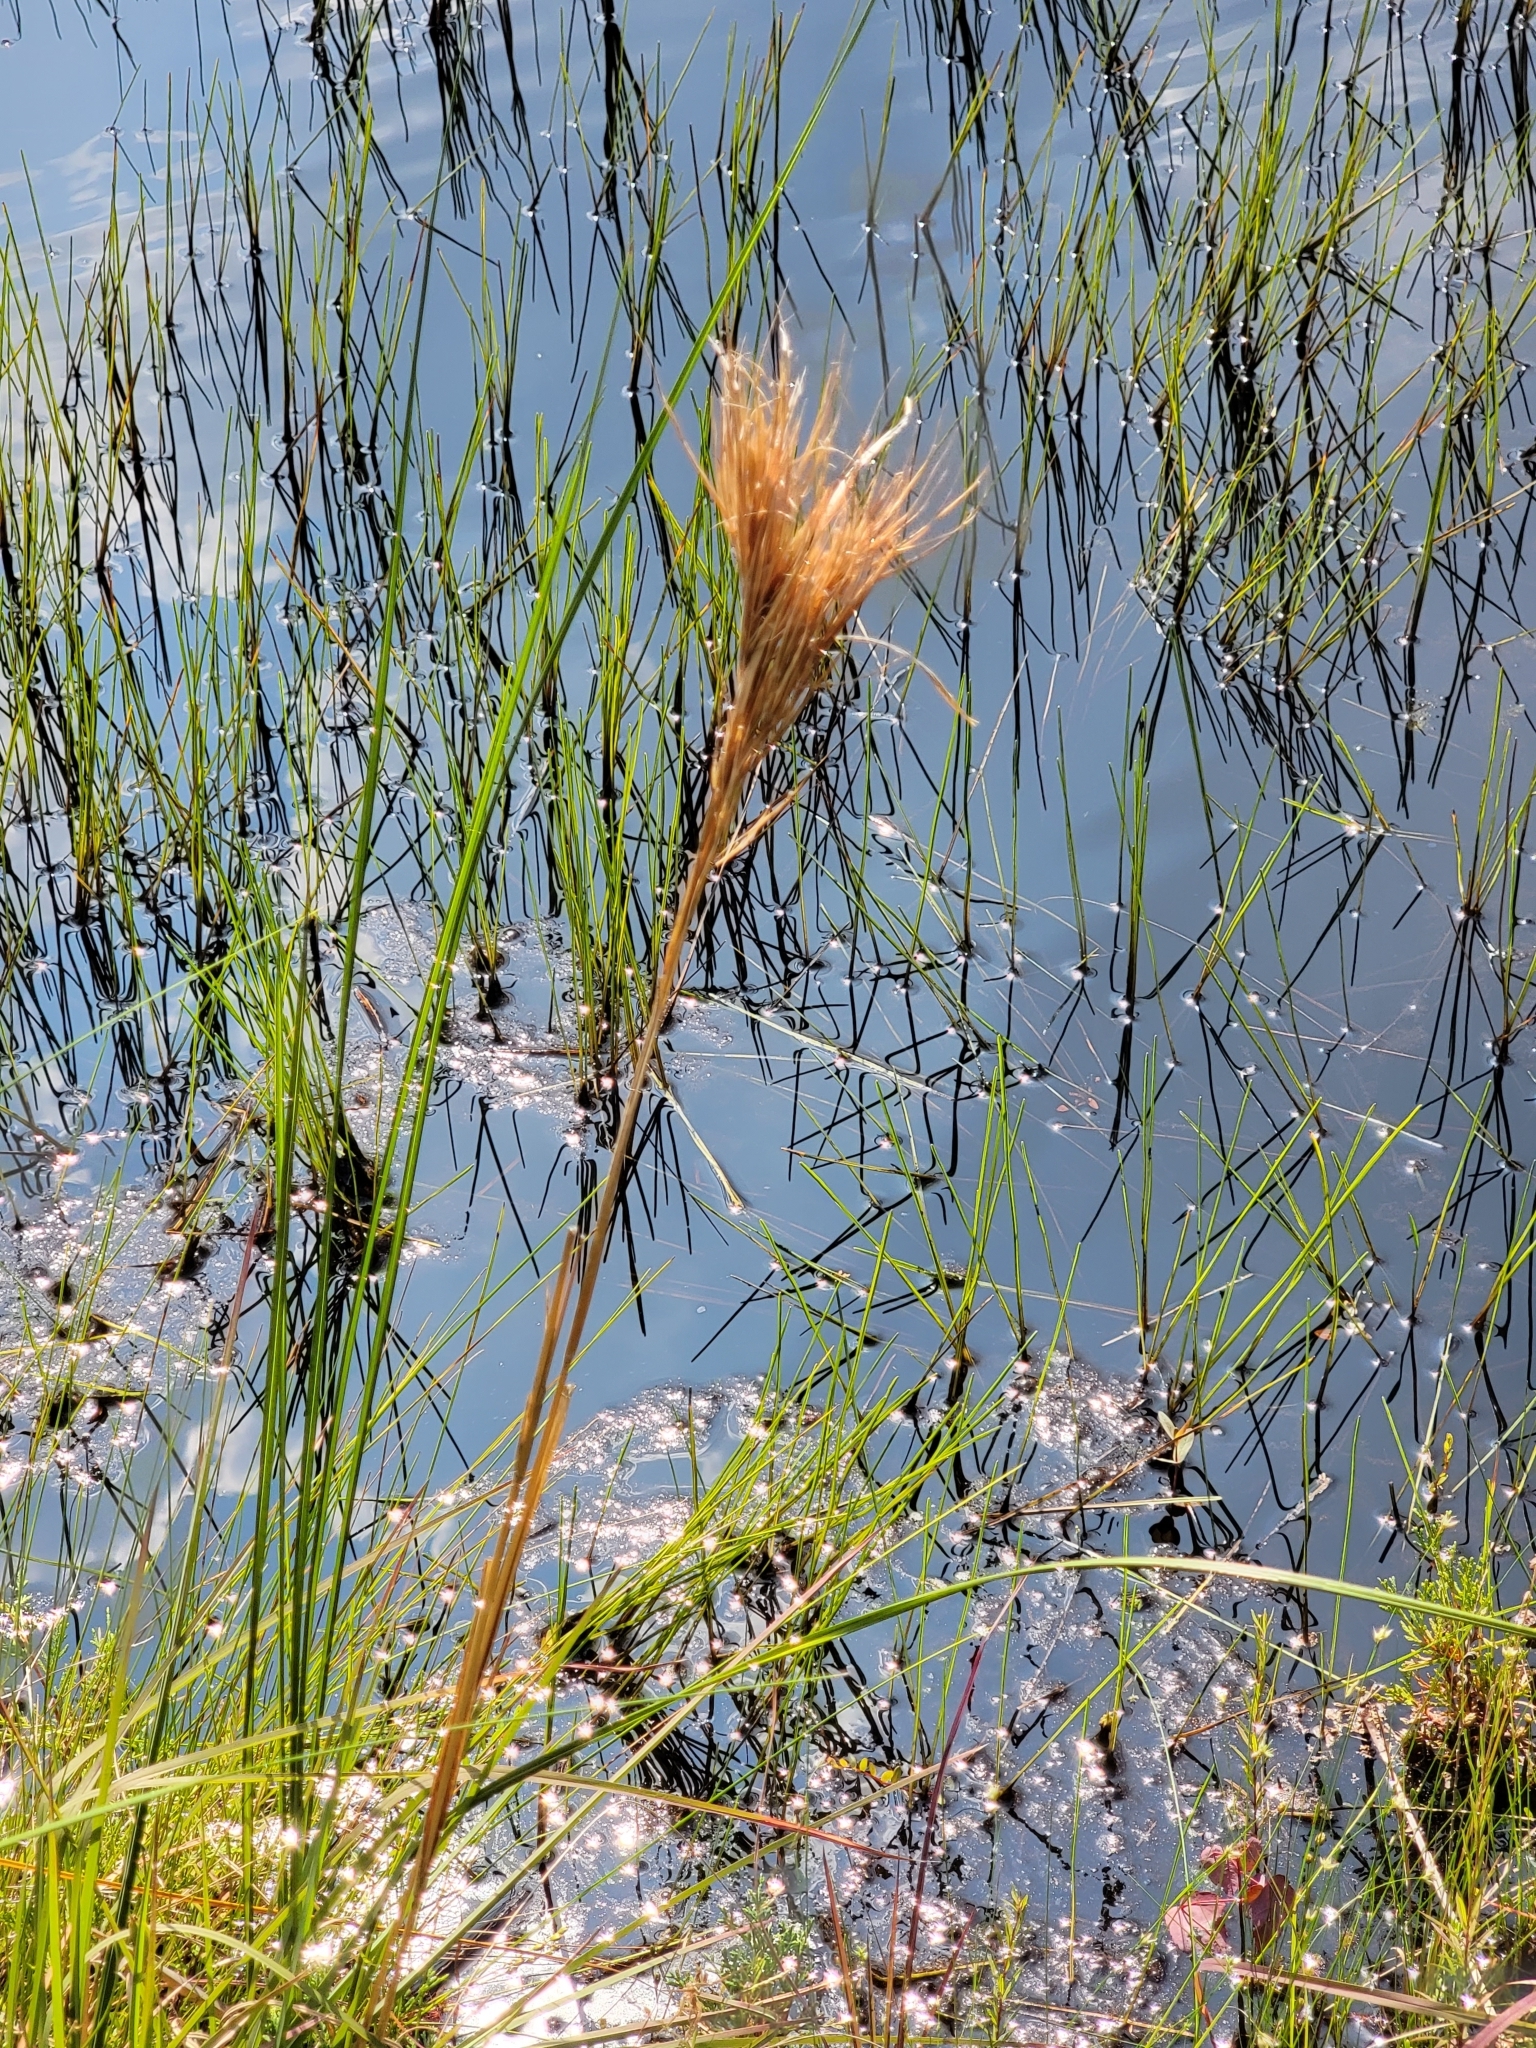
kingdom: Plantae
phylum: Tracheophyta
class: Liliopsida
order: Poales
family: Poaceae
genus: Andropogon
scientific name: Andropogon glomeratus
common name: Bushy beard grass
